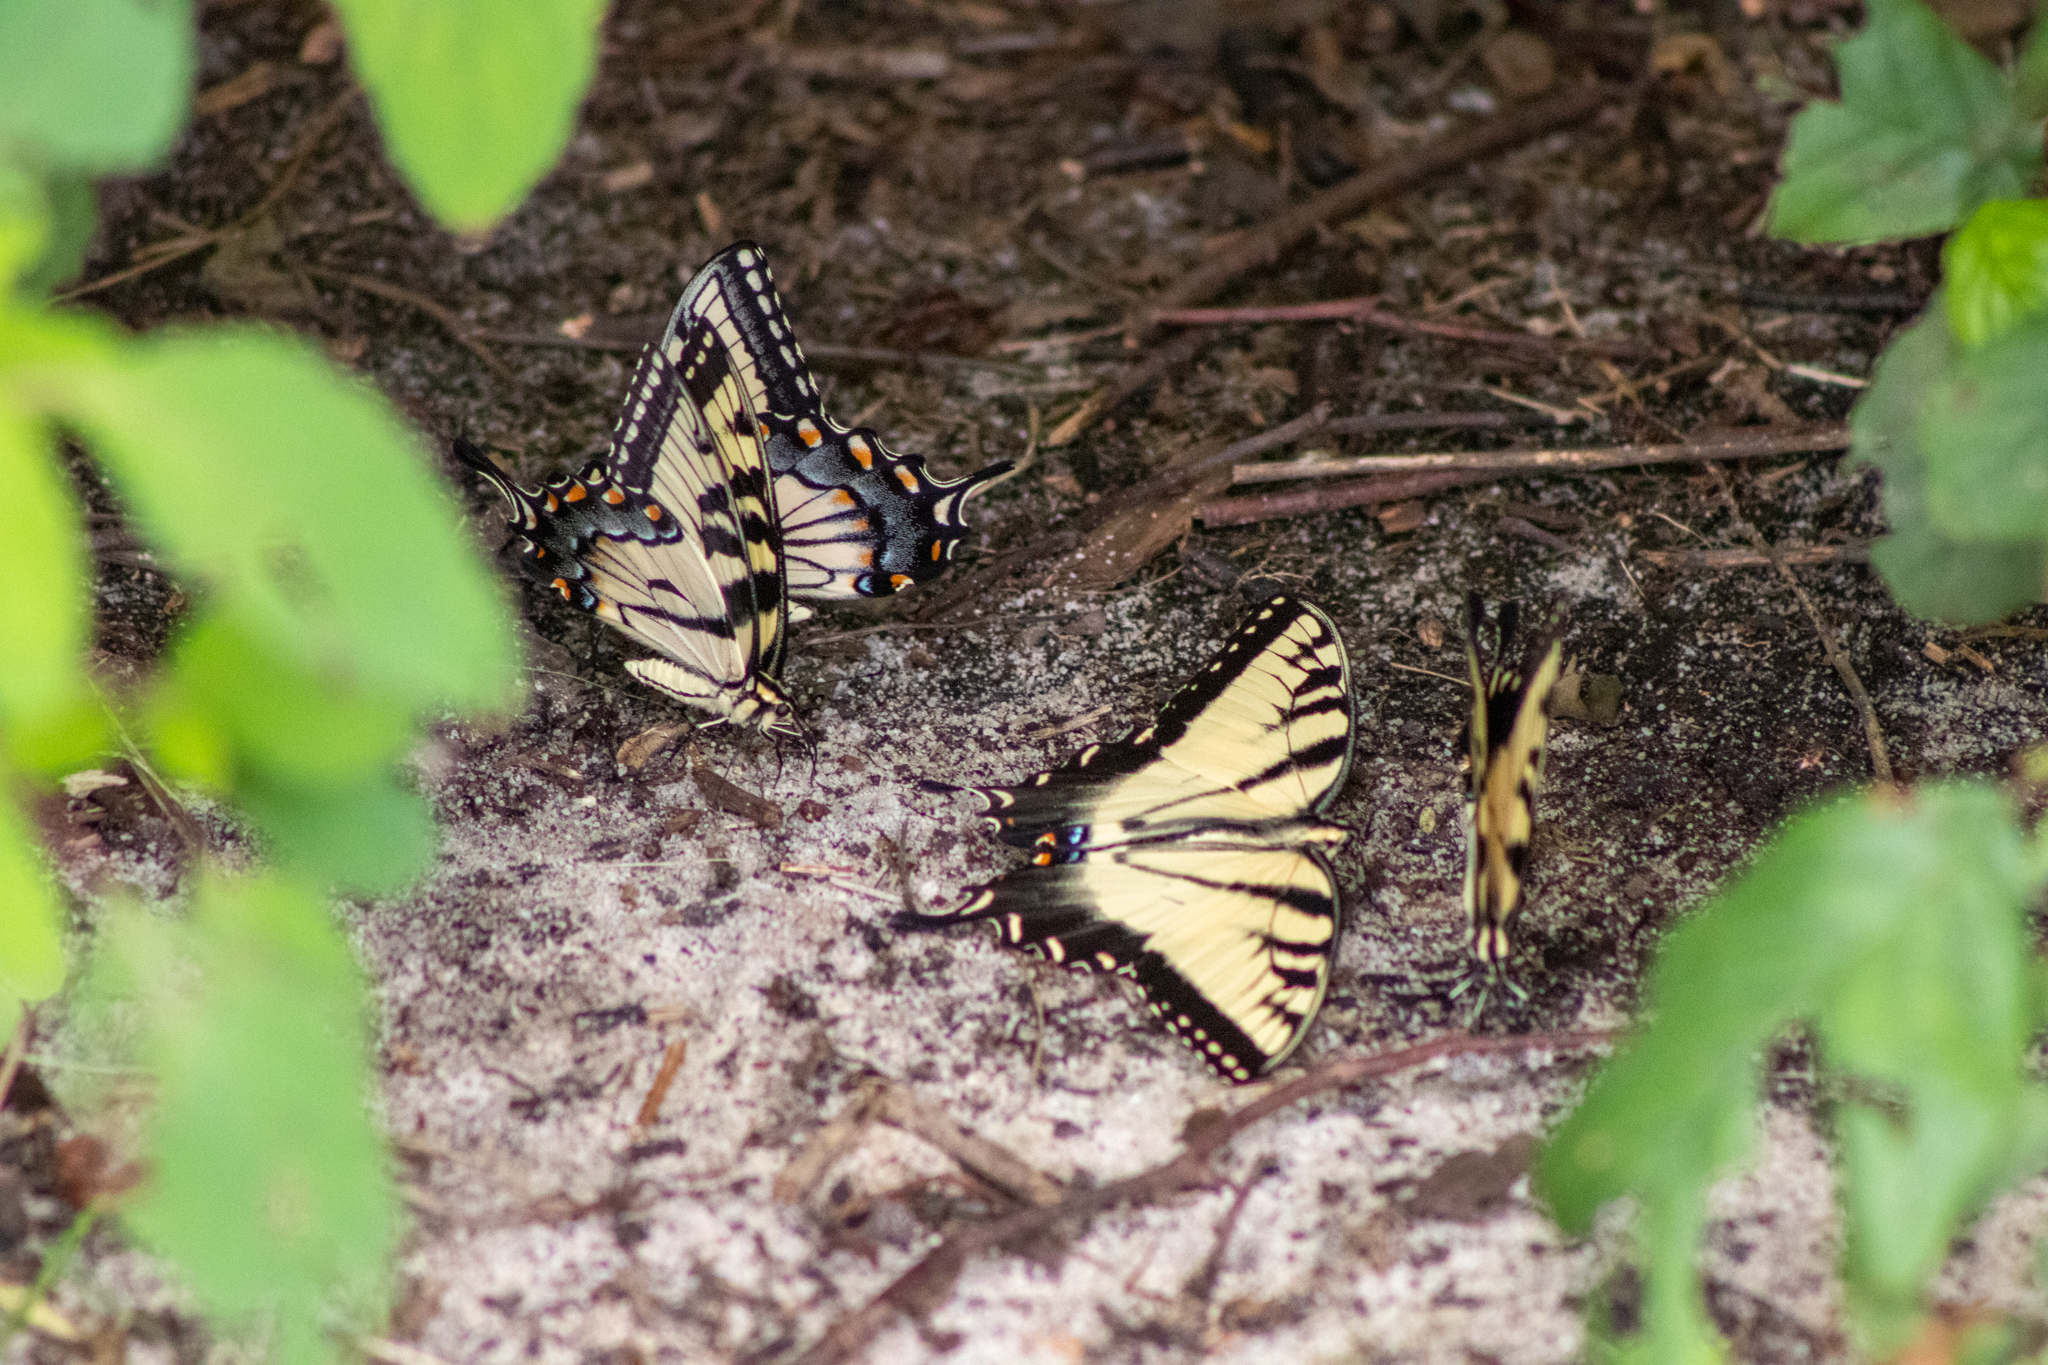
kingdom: Animalia
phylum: Arthropoda
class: Insecta
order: Lepidoptera
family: Papilionidae
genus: Papilio
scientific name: Papilio glaucus
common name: Tiger swallowtail
